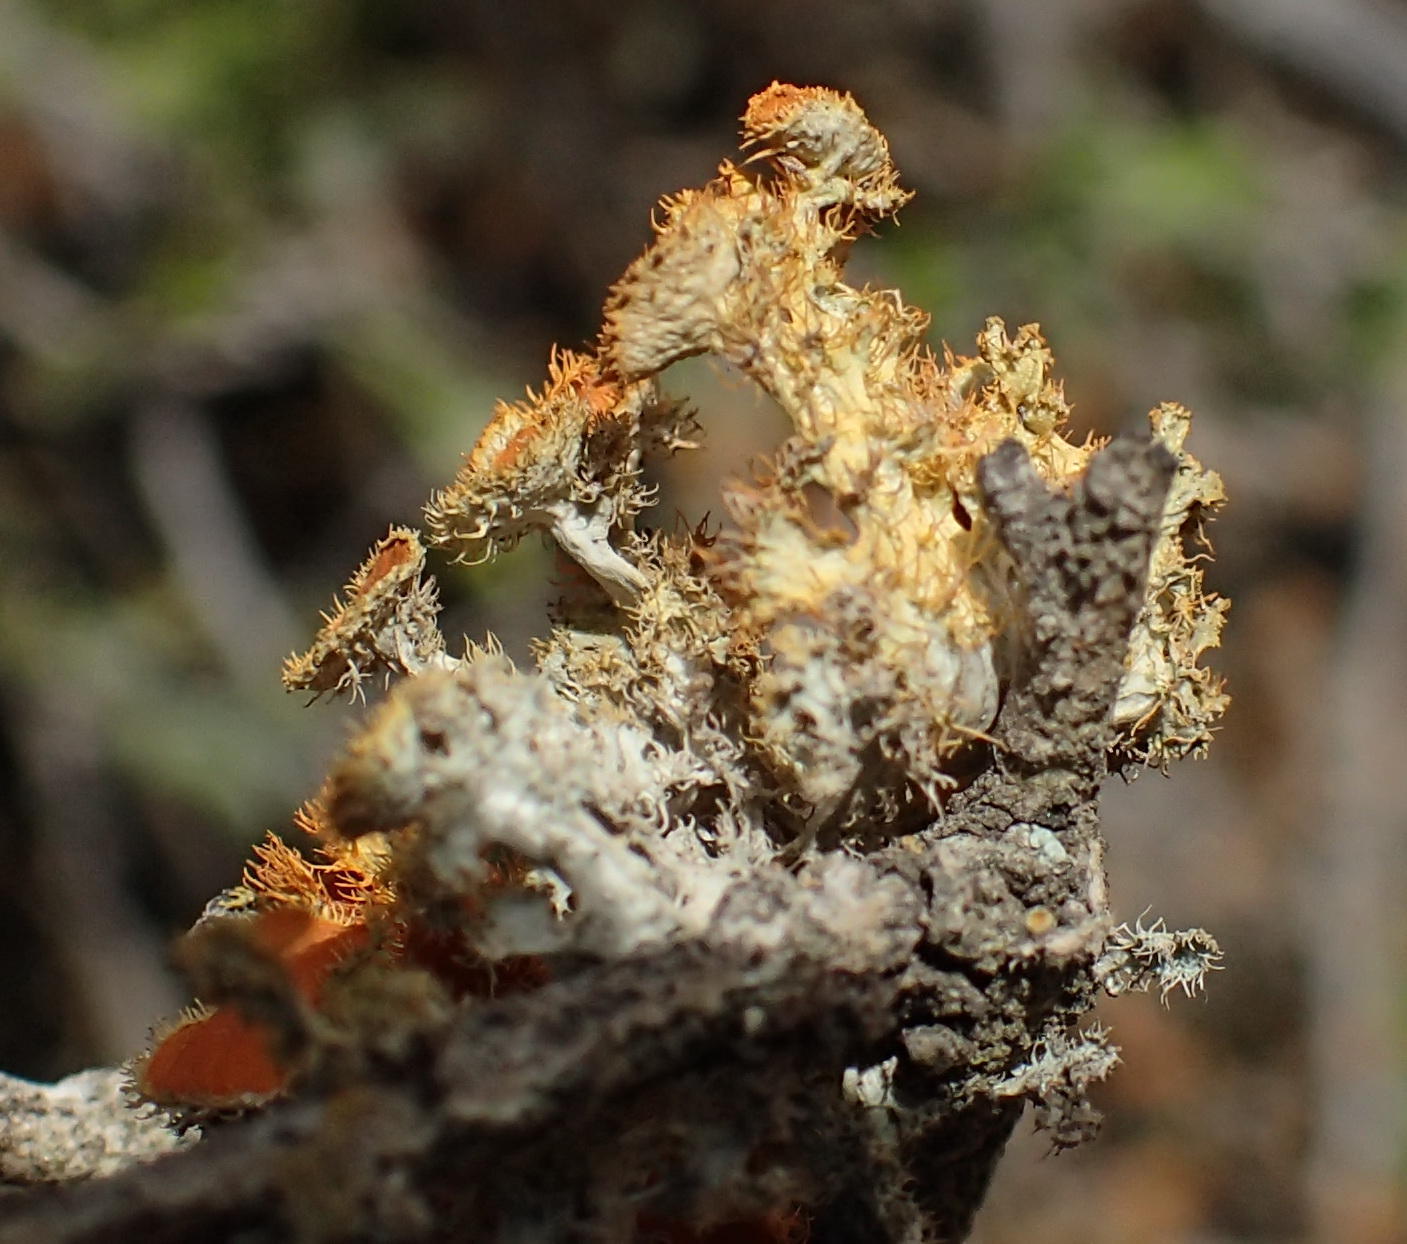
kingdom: Fungi
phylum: Ascomycota
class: Lecanoromycetes
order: Teloschistales
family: Teloschistaceae
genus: Niorma
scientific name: Niorma hypoglauca
